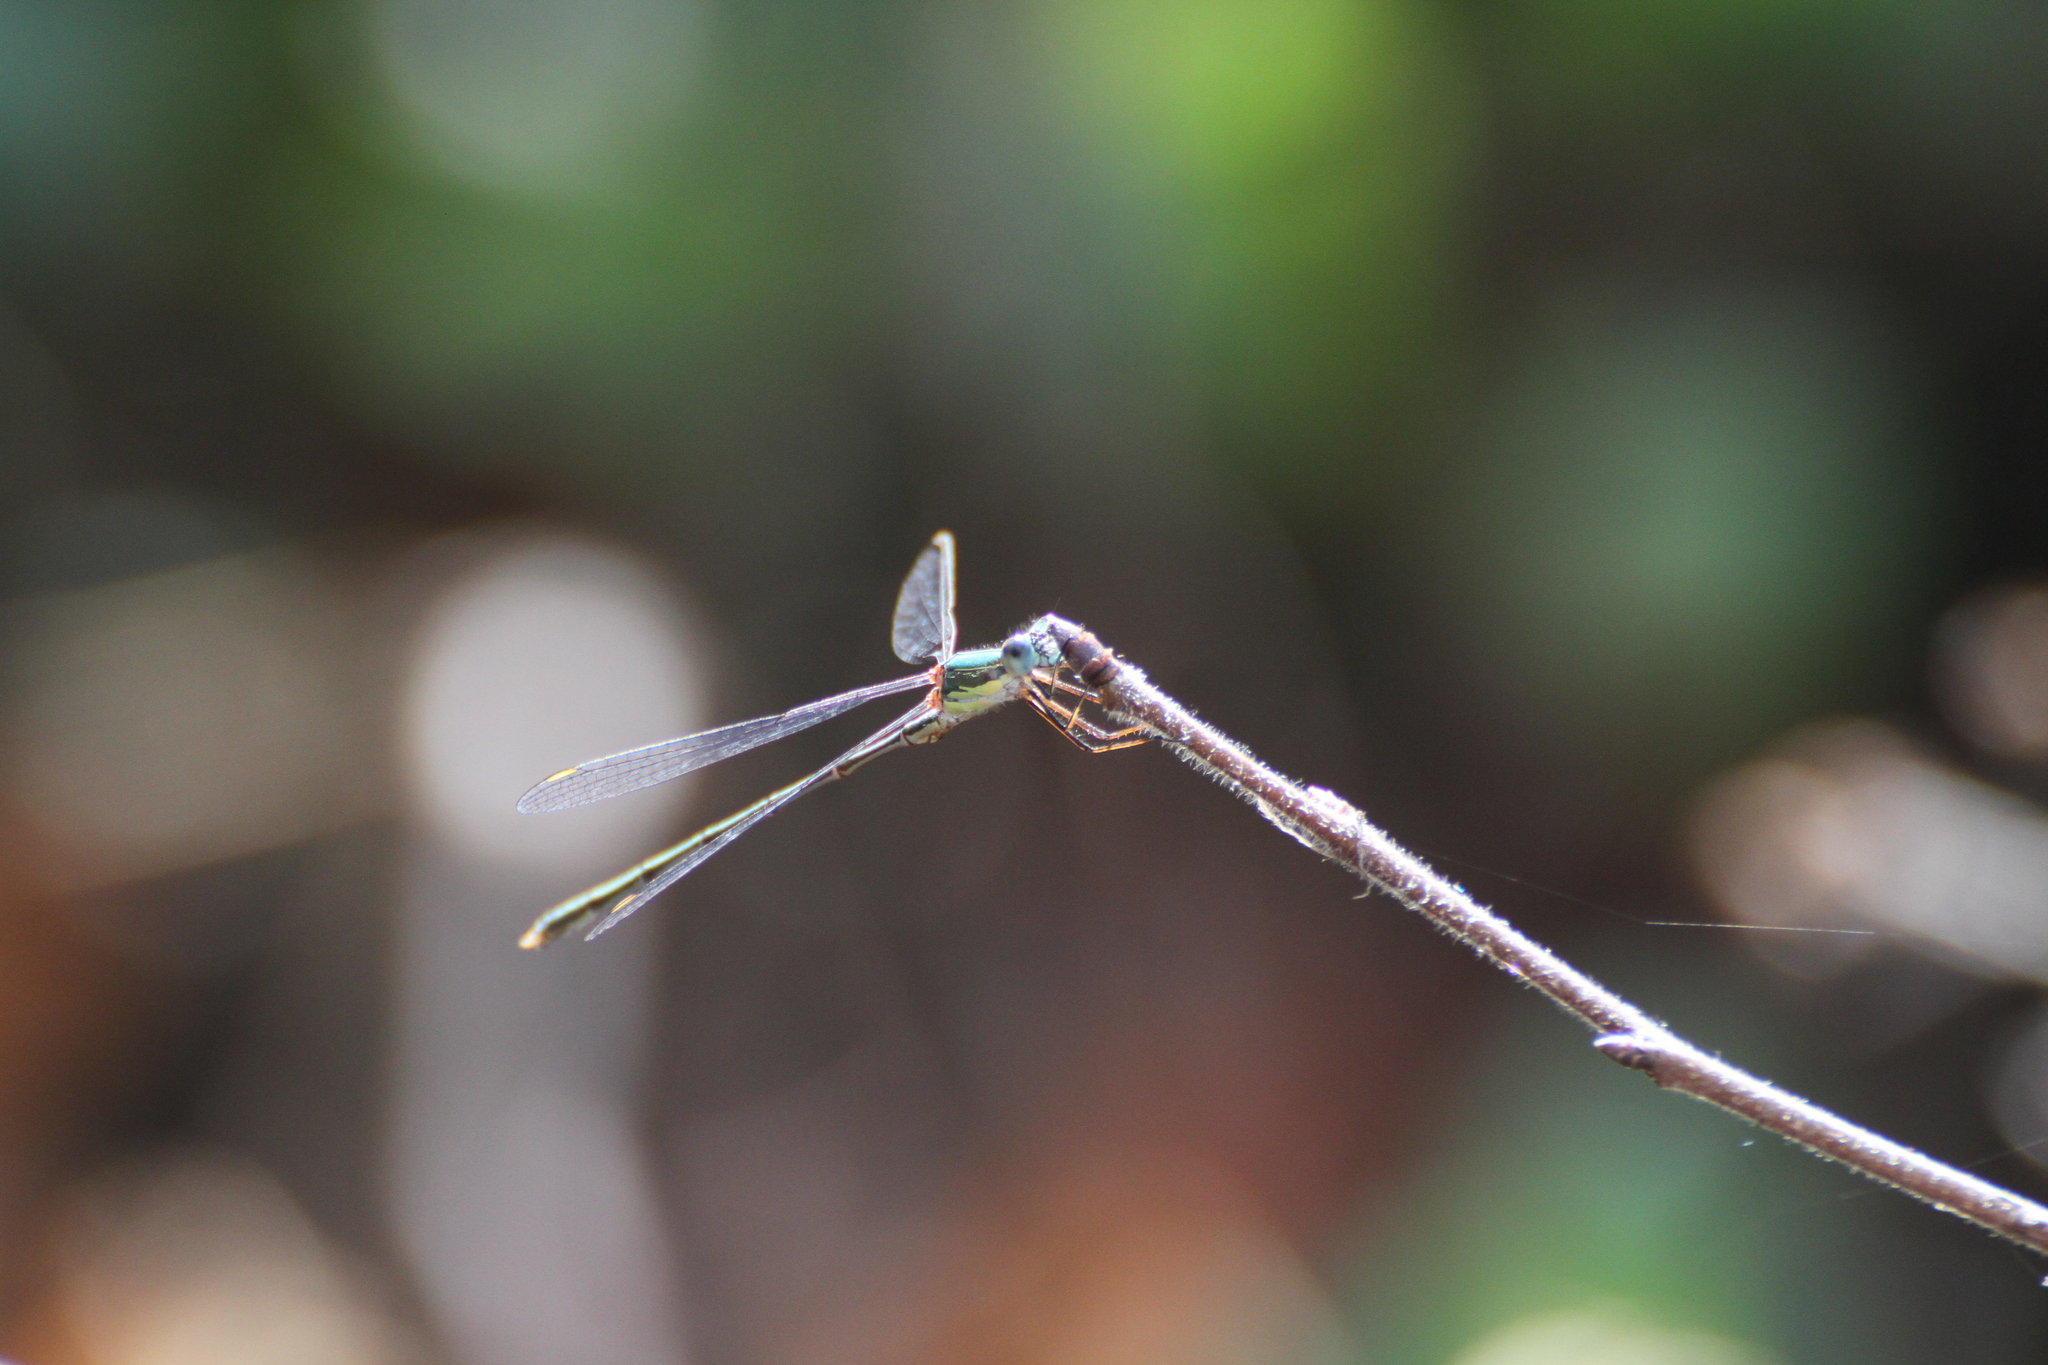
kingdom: Animalia
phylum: Arthropoda
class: Insecta
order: Odonata
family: Lestidae
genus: Chalcolestes
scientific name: Chalcolestes viridis
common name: Green emerald damselfly
